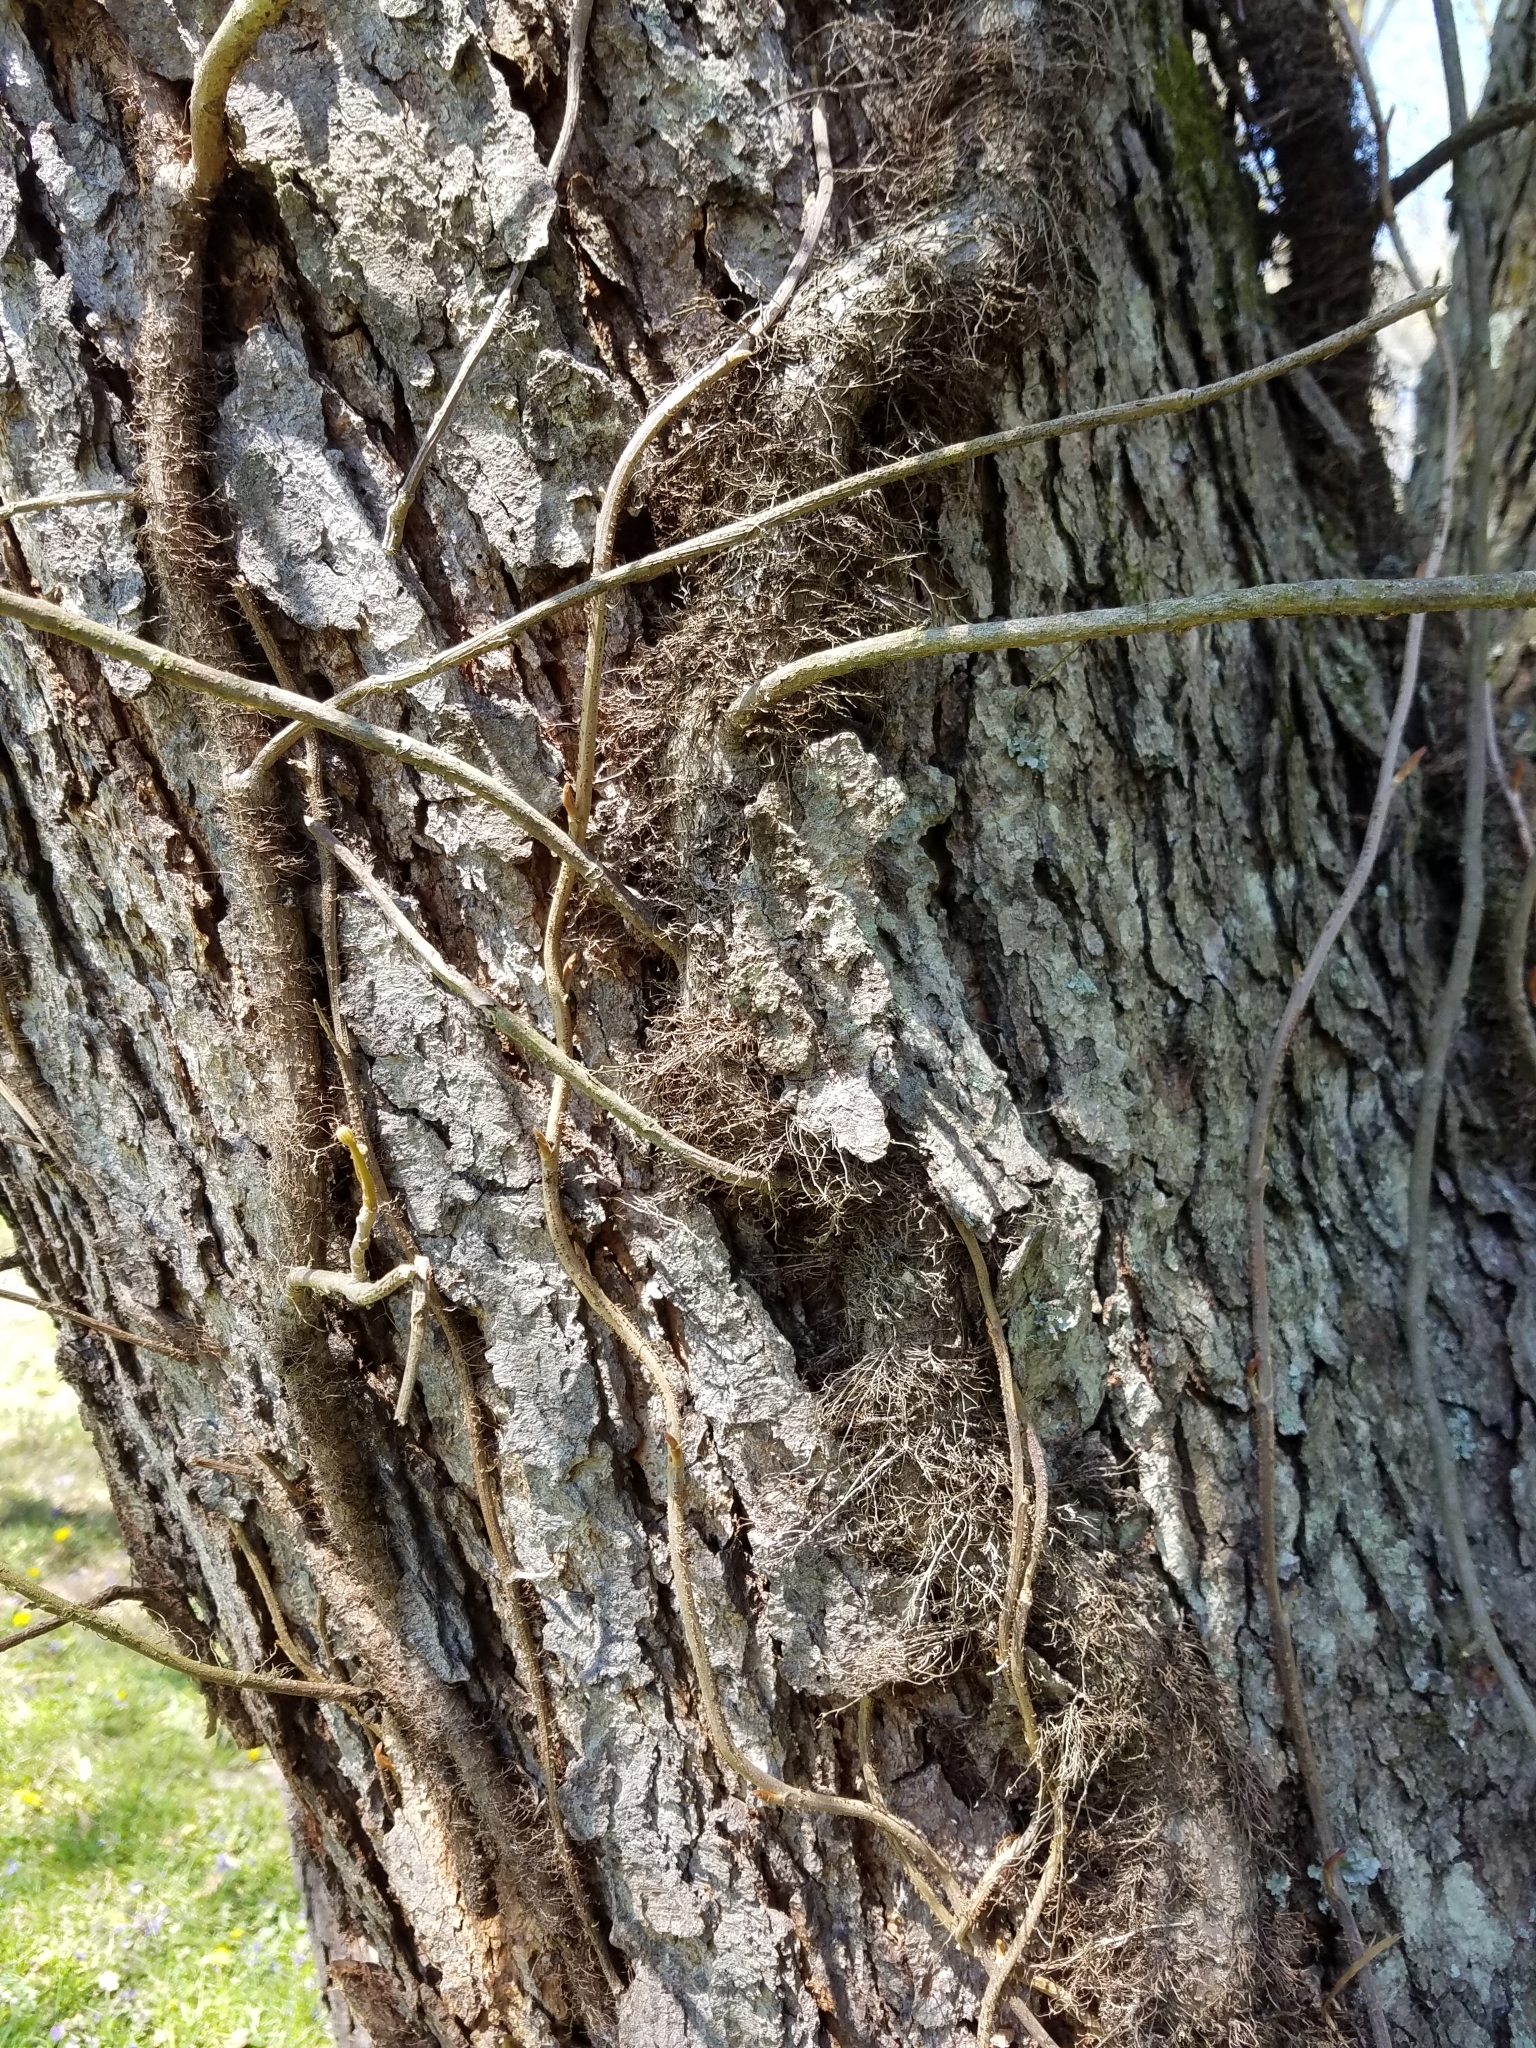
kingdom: Plantae
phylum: Tracheophyta
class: Magnoliopsida
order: Sapindales
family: Anacardiaceae
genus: Toxicodendron
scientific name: Toxicodendron radicans
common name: Poison ivy
